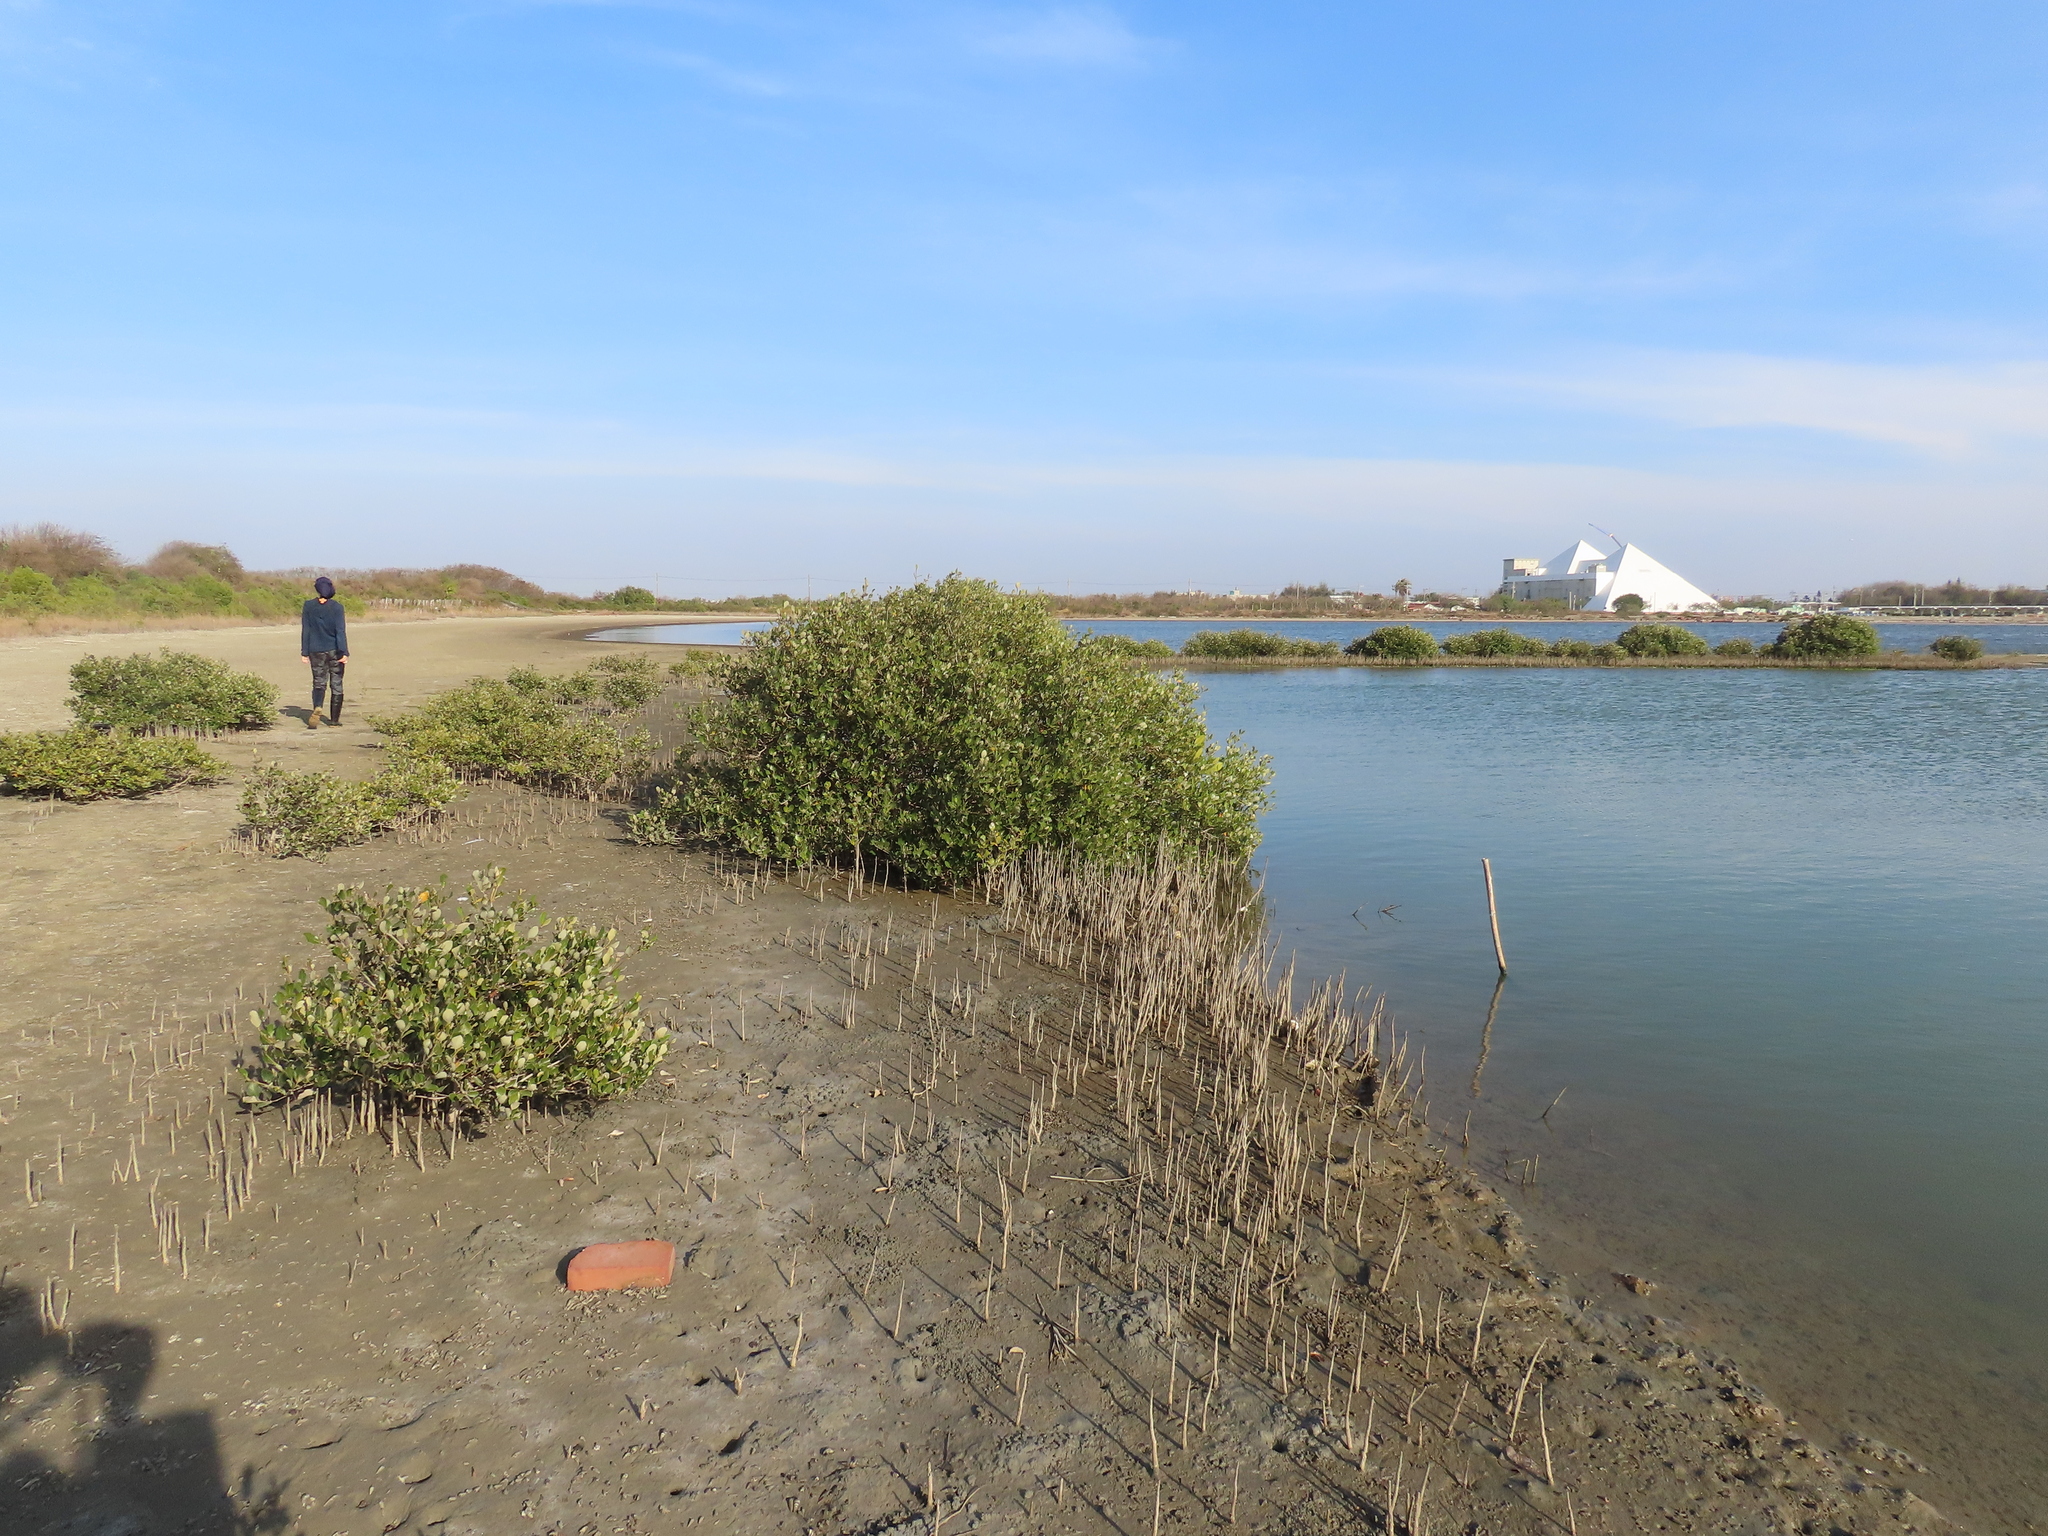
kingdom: Plantae
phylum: Tracheophyta
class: Magnoliopsida
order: Lamiales
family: Acanthaceae
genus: Avicennia
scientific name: Avicennia marina
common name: Gray mangrove
